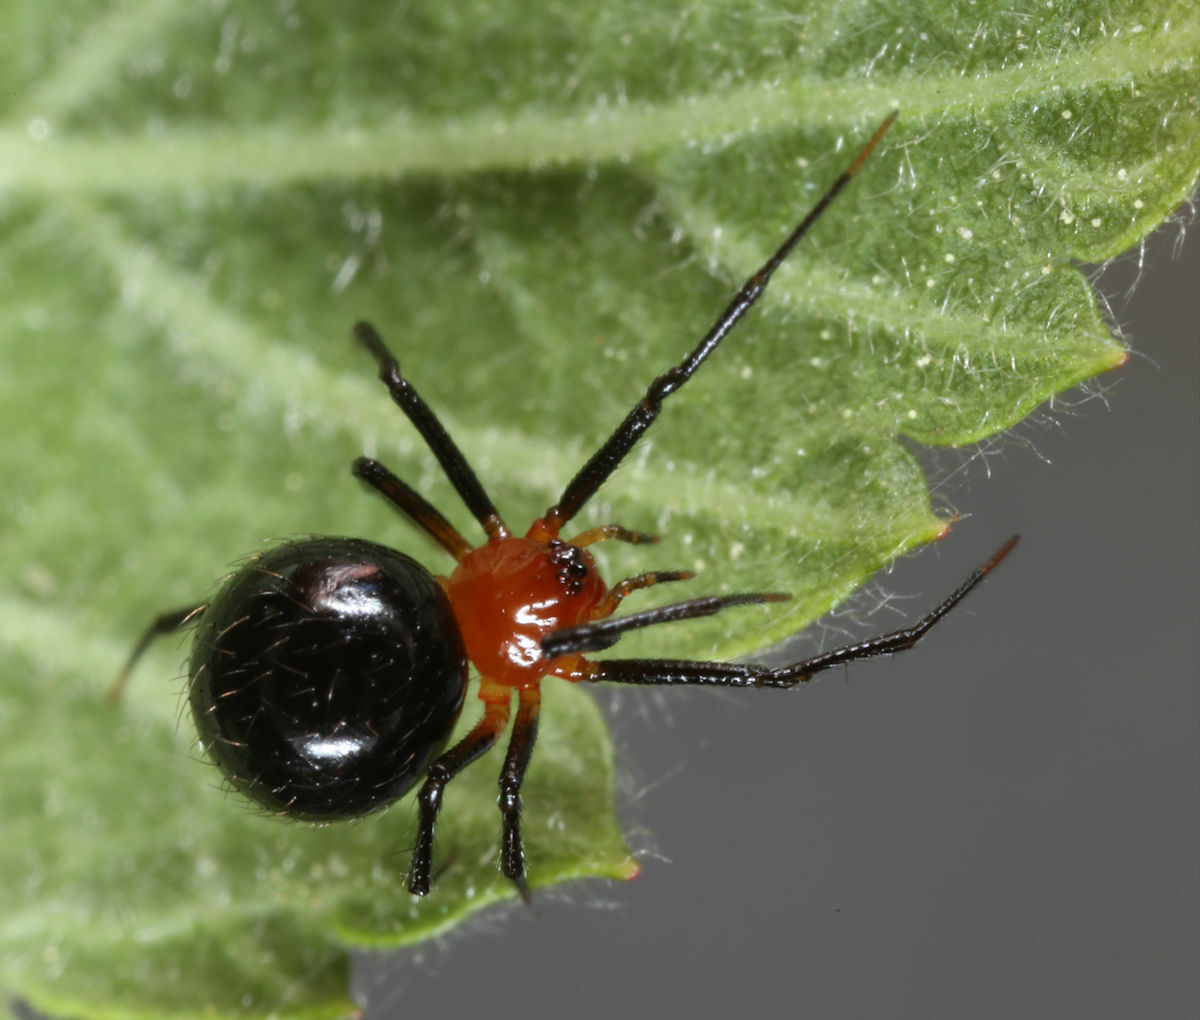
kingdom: Animalia
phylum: Arthropoda
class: Arachnida
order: Araneae
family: Theridiidae
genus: Thymoites
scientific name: Thymoites pictipes
